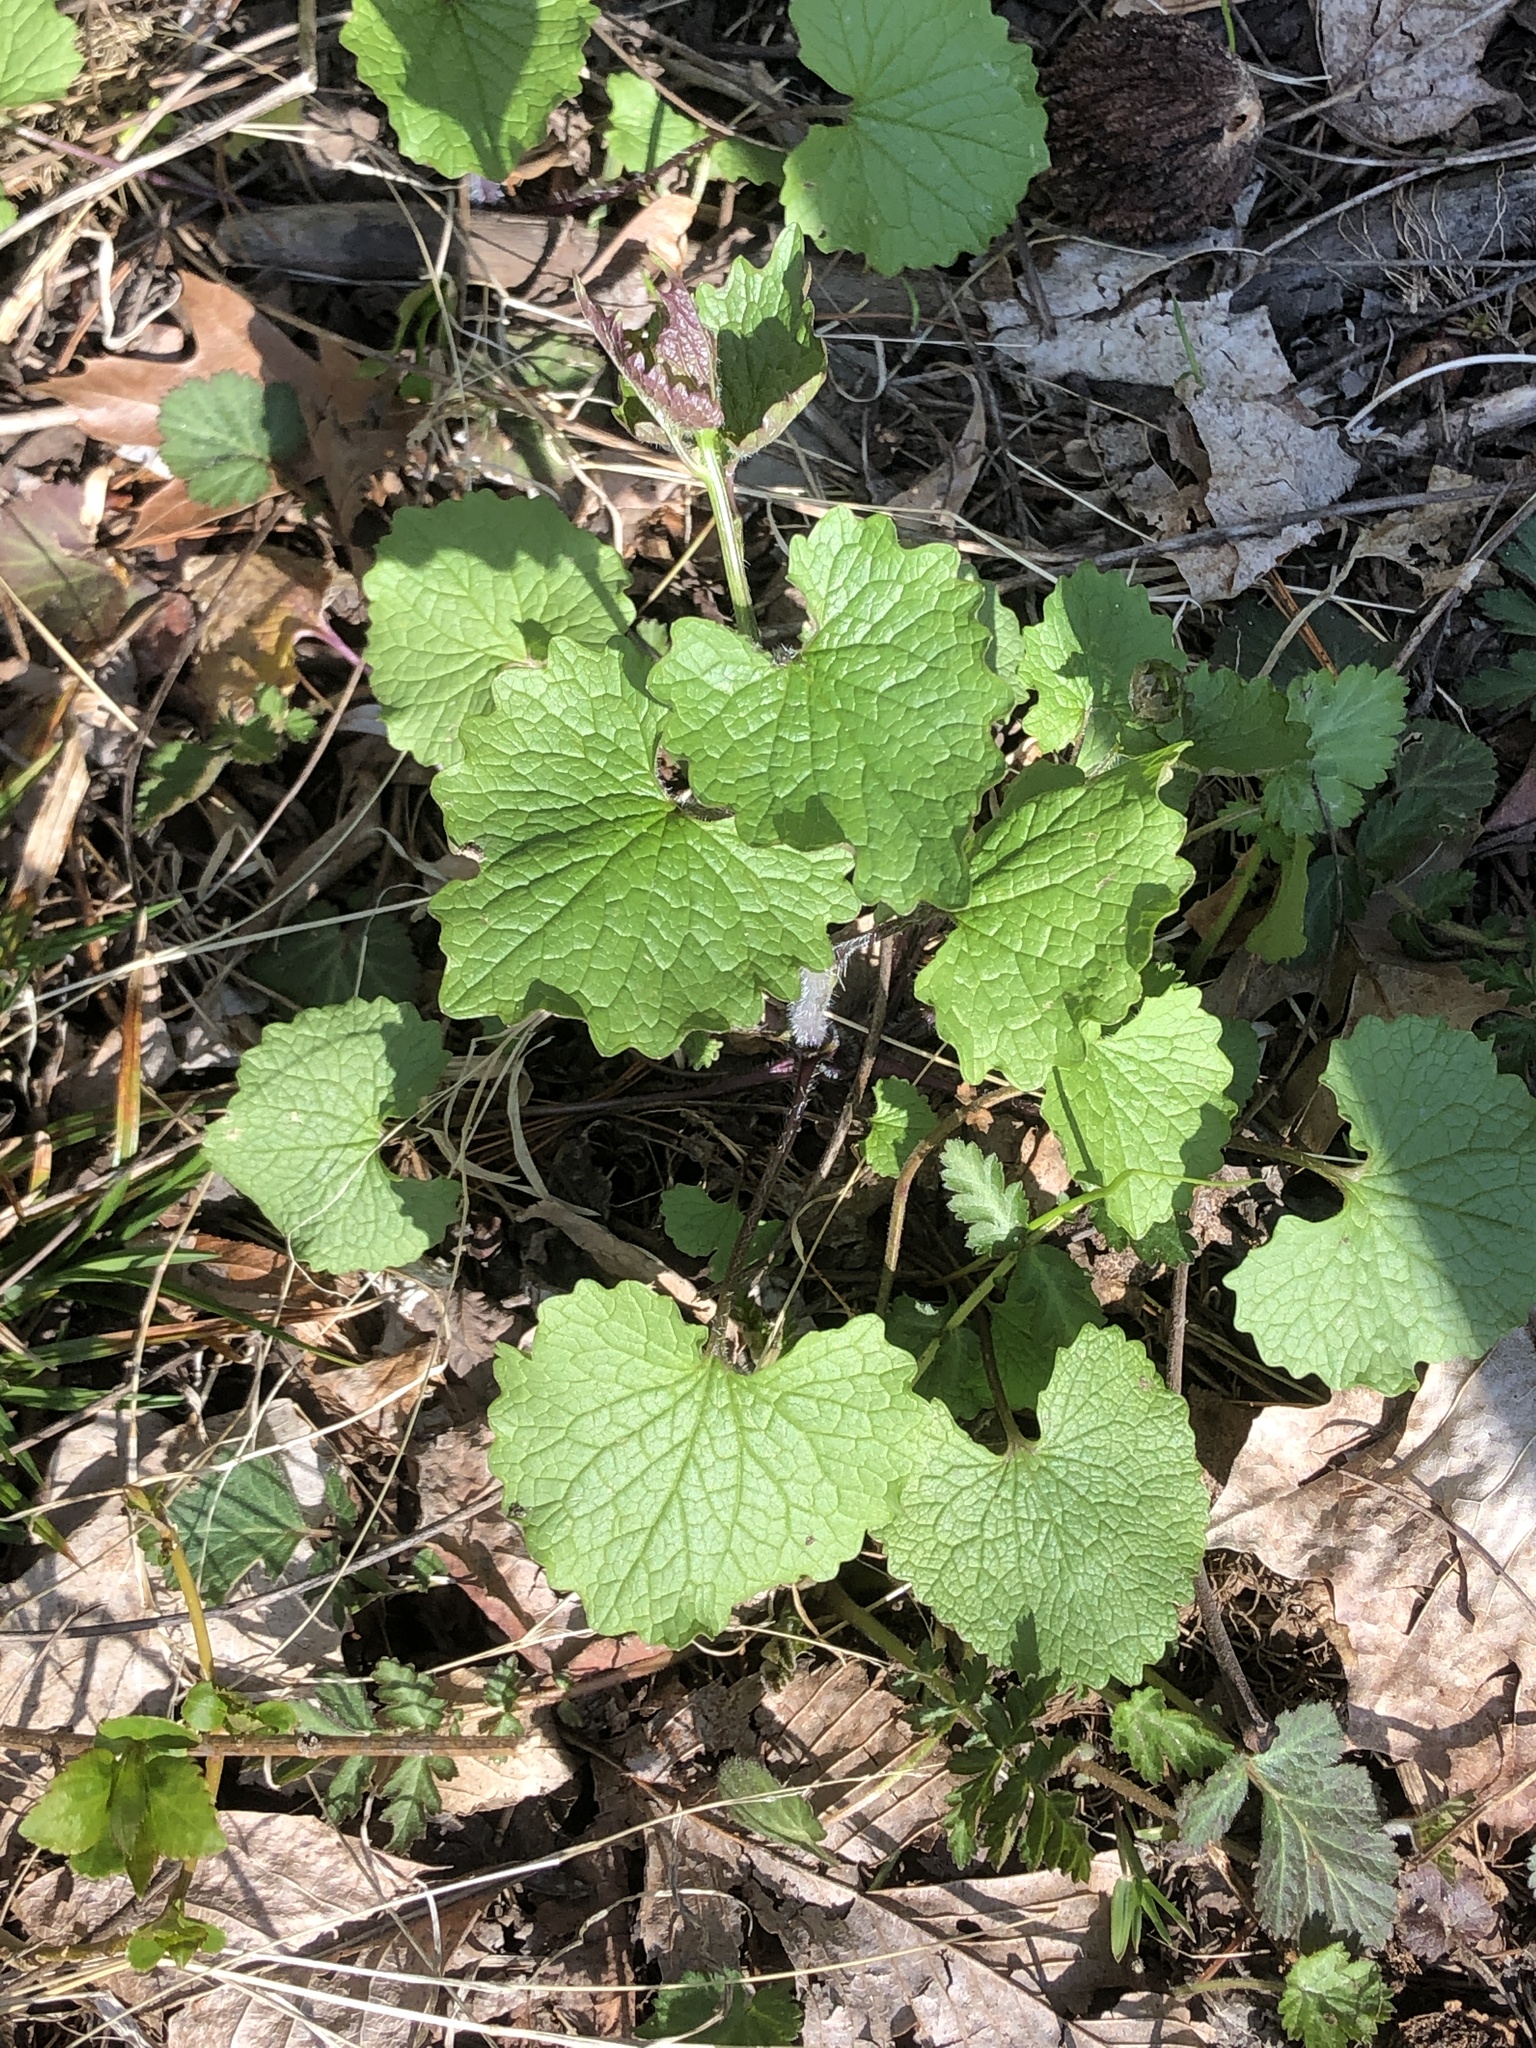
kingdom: Plantae
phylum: Tracheophyta
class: Magnoliopsida
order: Brassicales
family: Brassicaceae
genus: Alliaria
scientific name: Alliaria petiolata
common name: Garlic mustard
